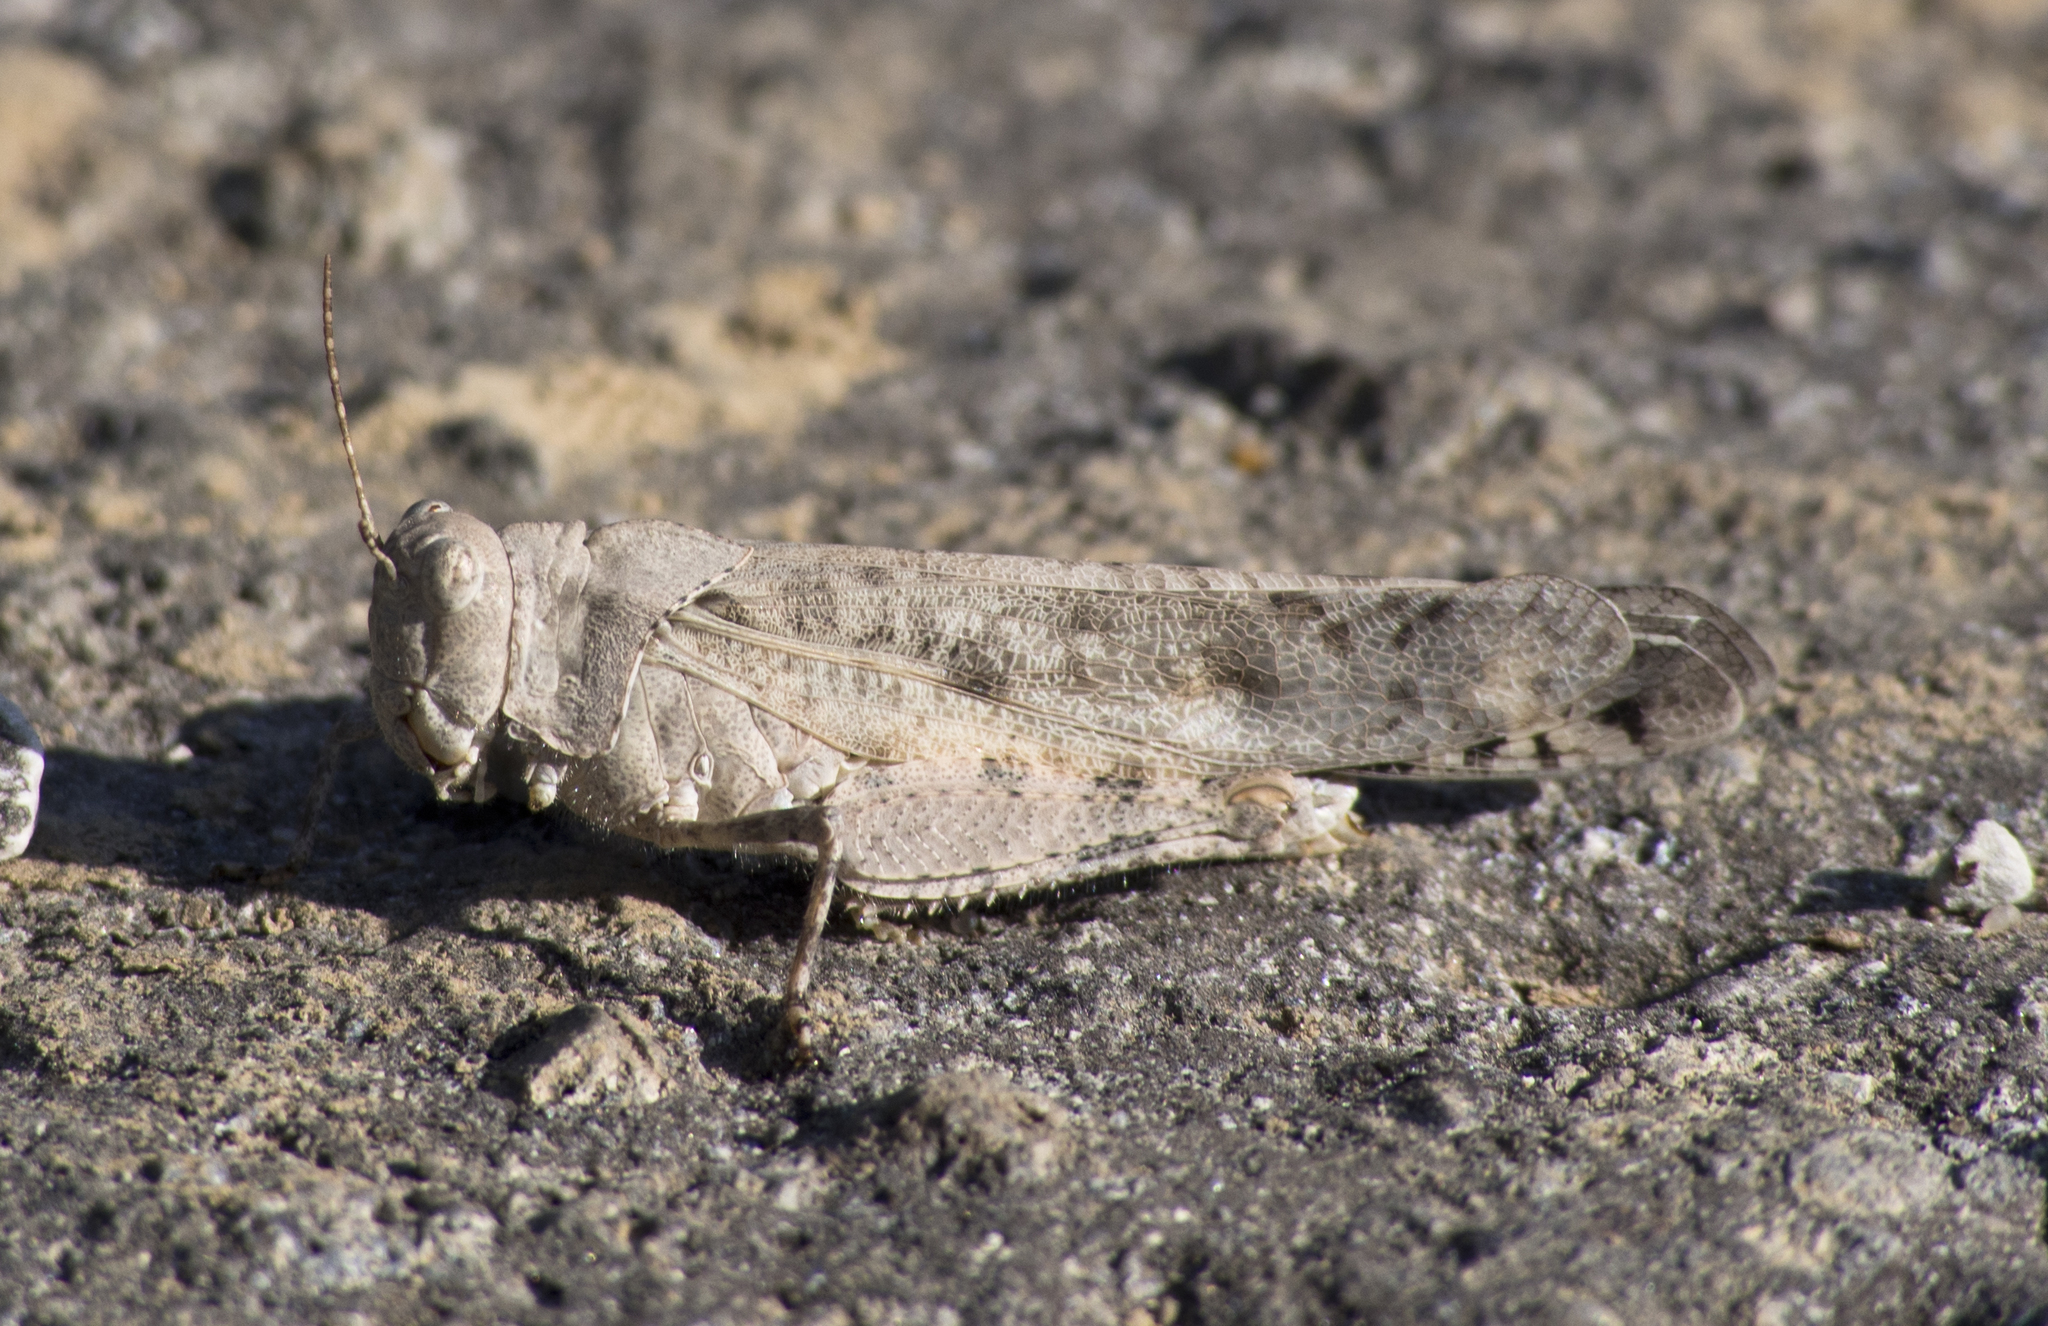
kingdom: Animalia
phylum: Arthropoda
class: Insecta
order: Orthoptera
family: Acrididae
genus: Dissosteira
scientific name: Dissosteira carolina
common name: Carolina grasshopper
